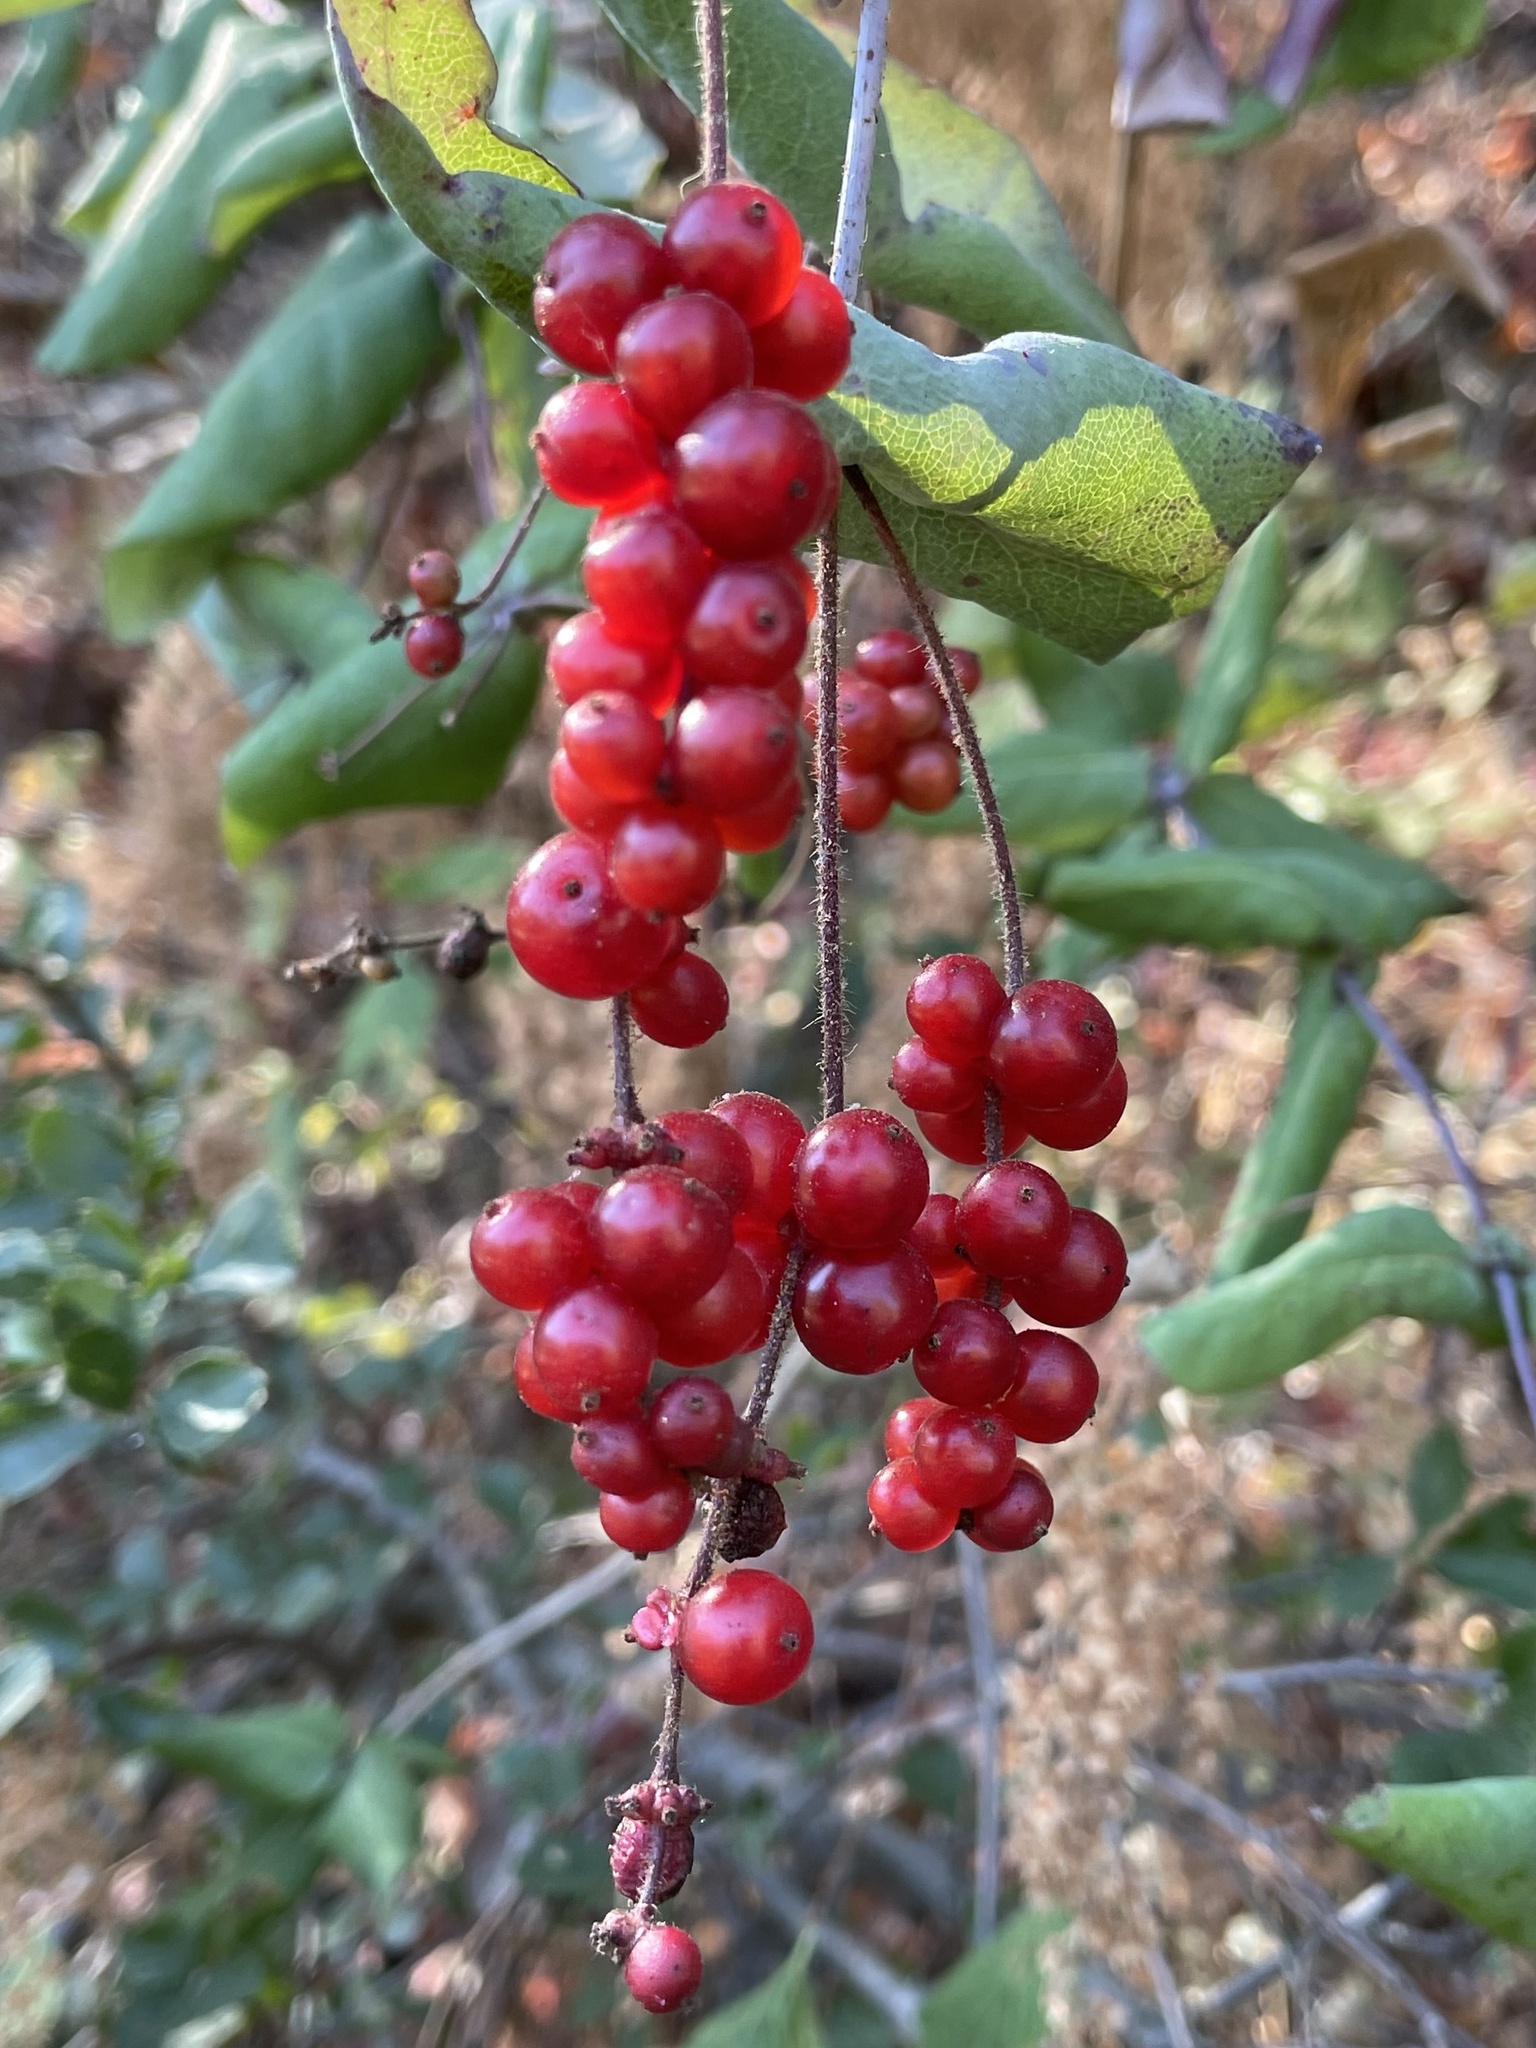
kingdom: Plantae
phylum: Tracheophyta
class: Magnoliopsida
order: Dipsacales
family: Caprifoliaceae
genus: Lonicera
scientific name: Lonicera hispidula
